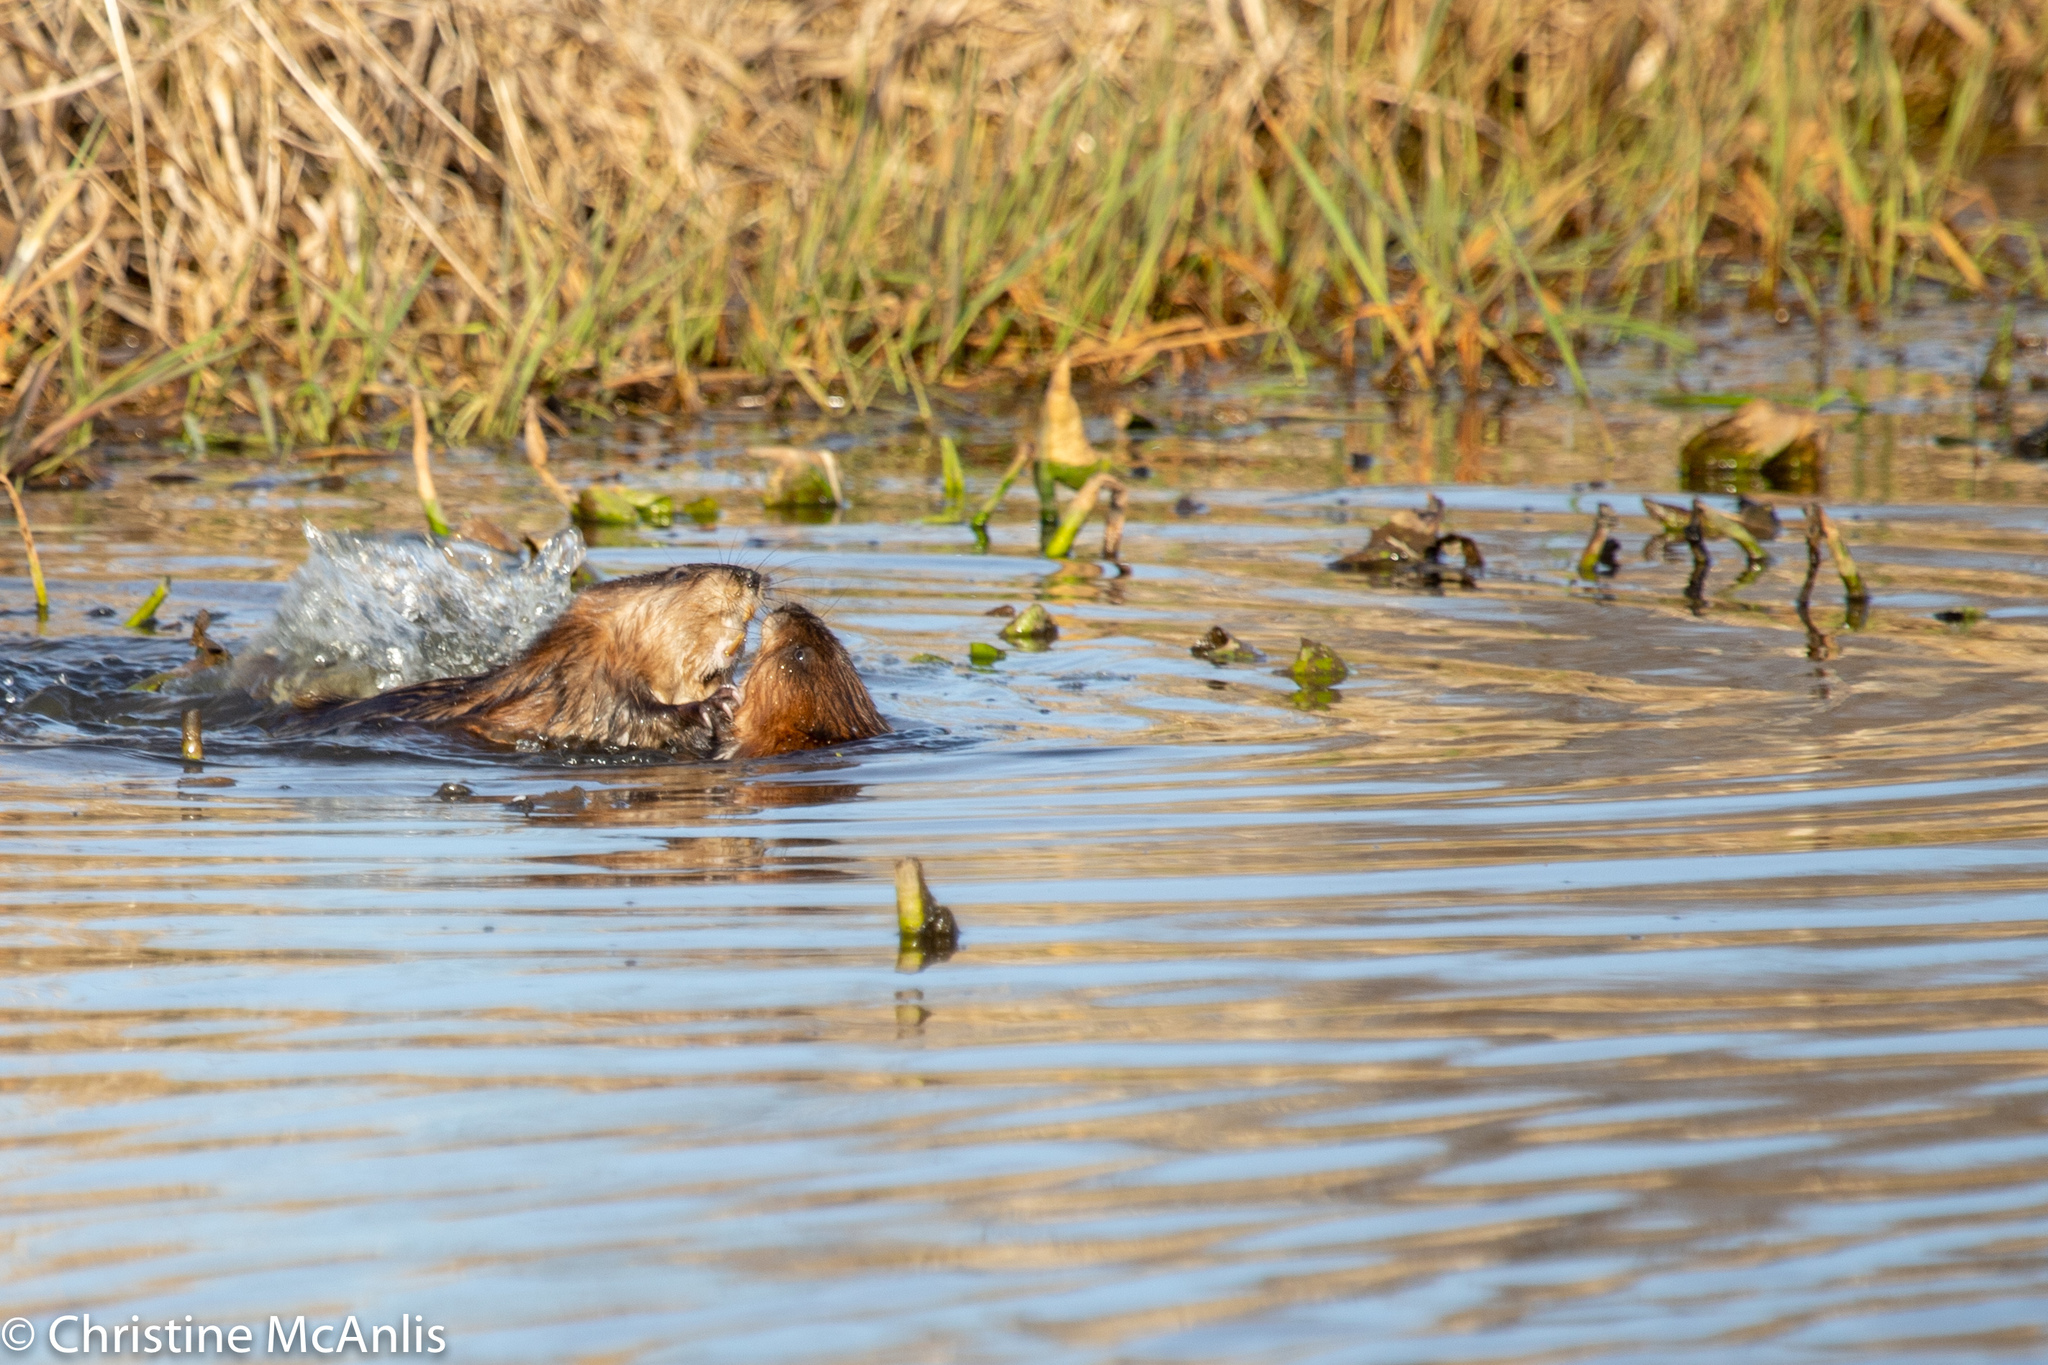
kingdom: Animalia
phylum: Chordata
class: Mammalia
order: Rodentia
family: Cricetidae
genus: Ondatra
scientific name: Ondatra zibethicus
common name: Muskrat
